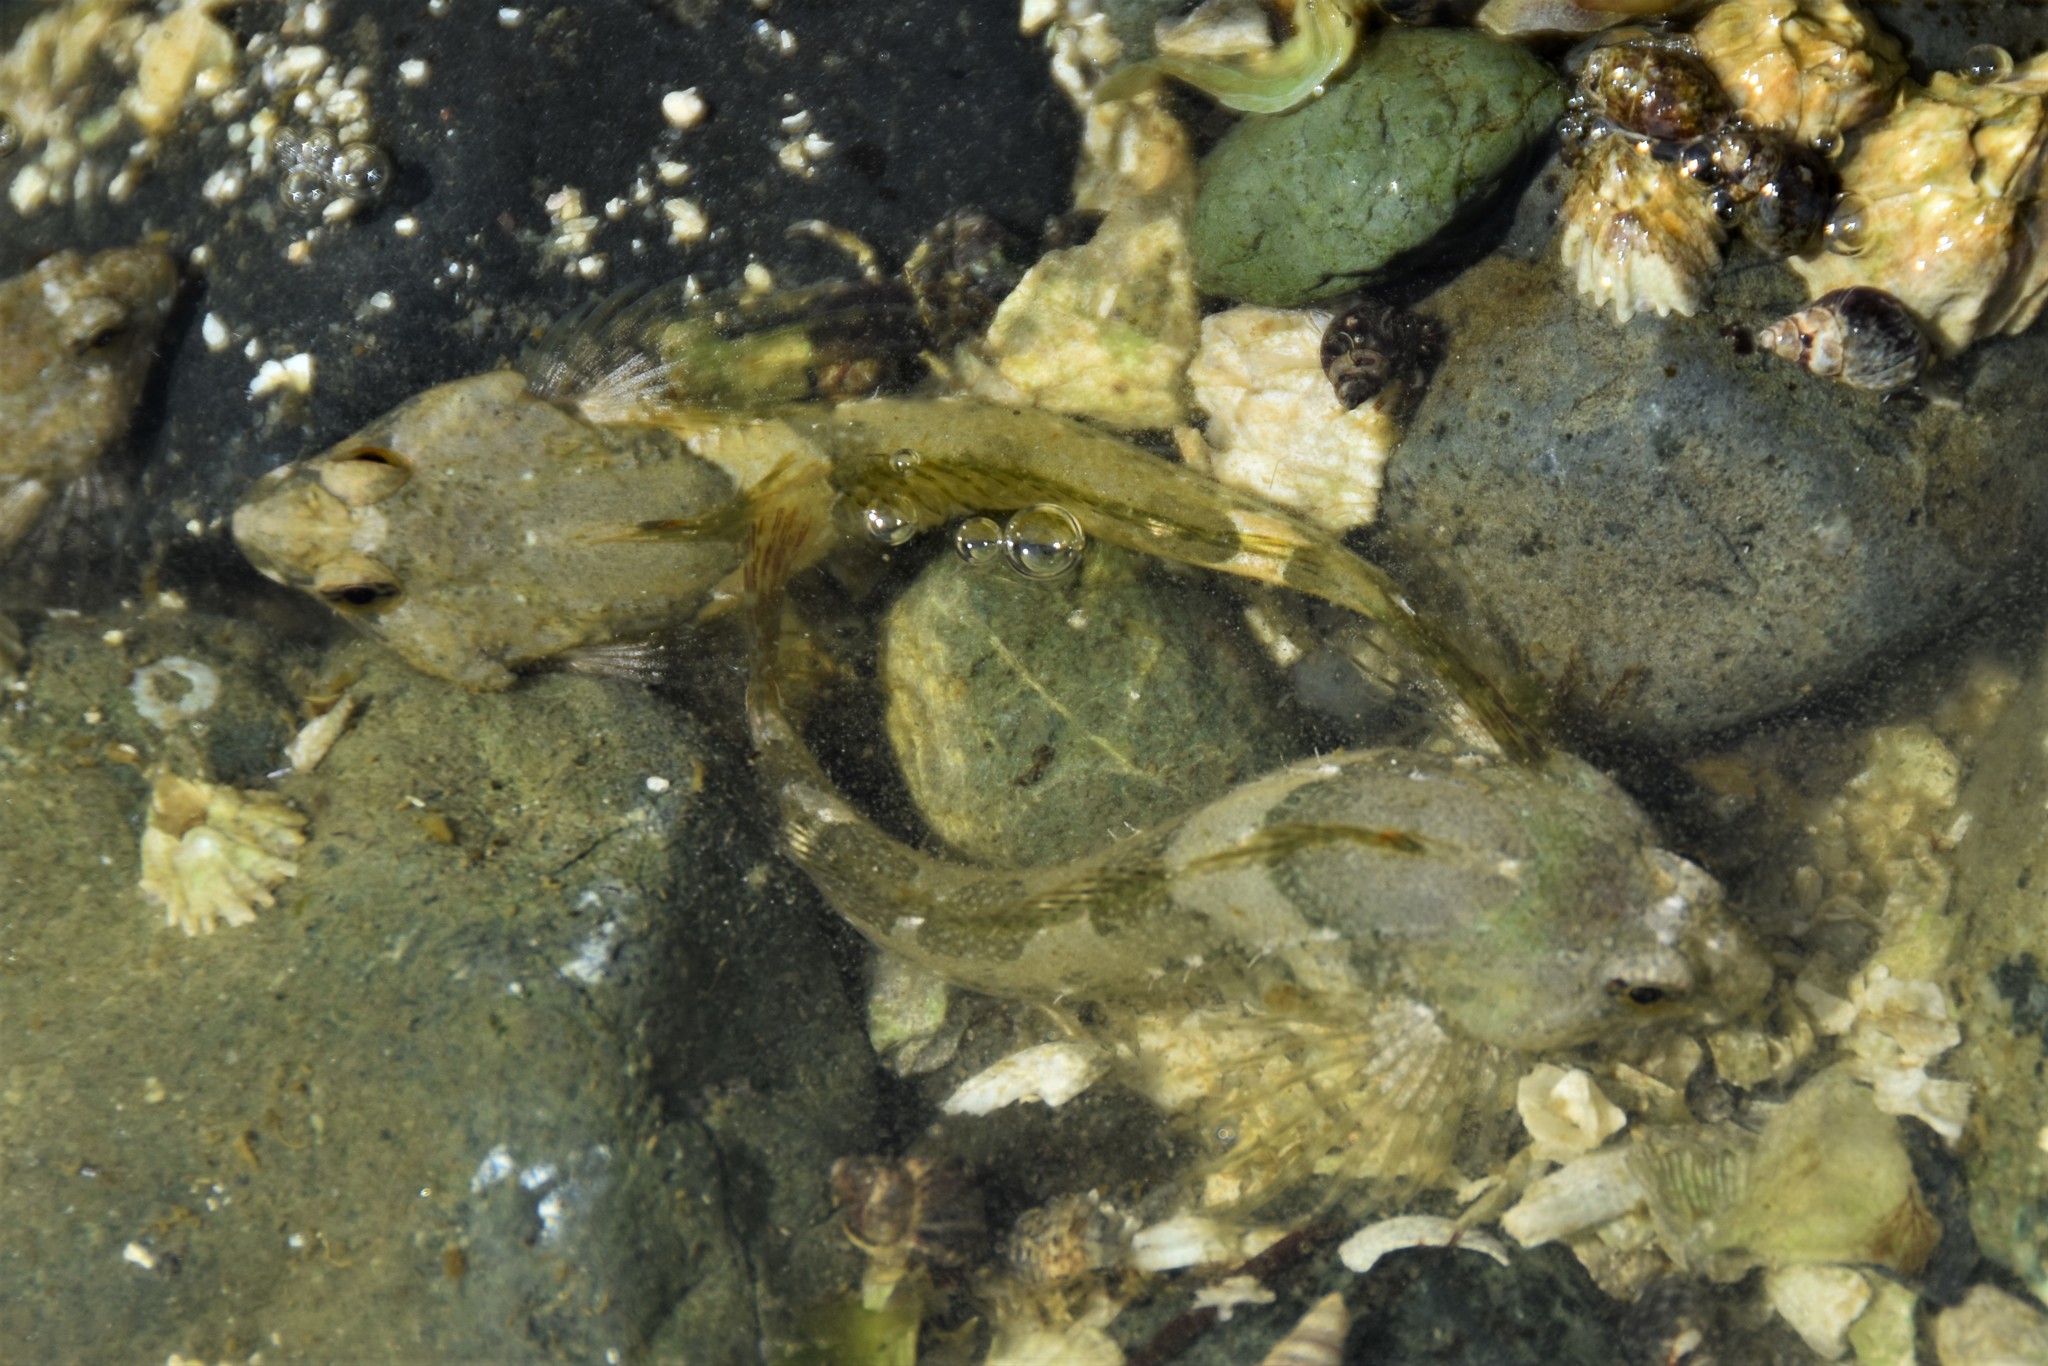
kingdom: Animalia
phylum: Chordata
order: Scorpaeniformes
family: Cottidae
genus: Oligocottus
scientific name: Oligocottus maculosus
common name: Tidepool sculpin
